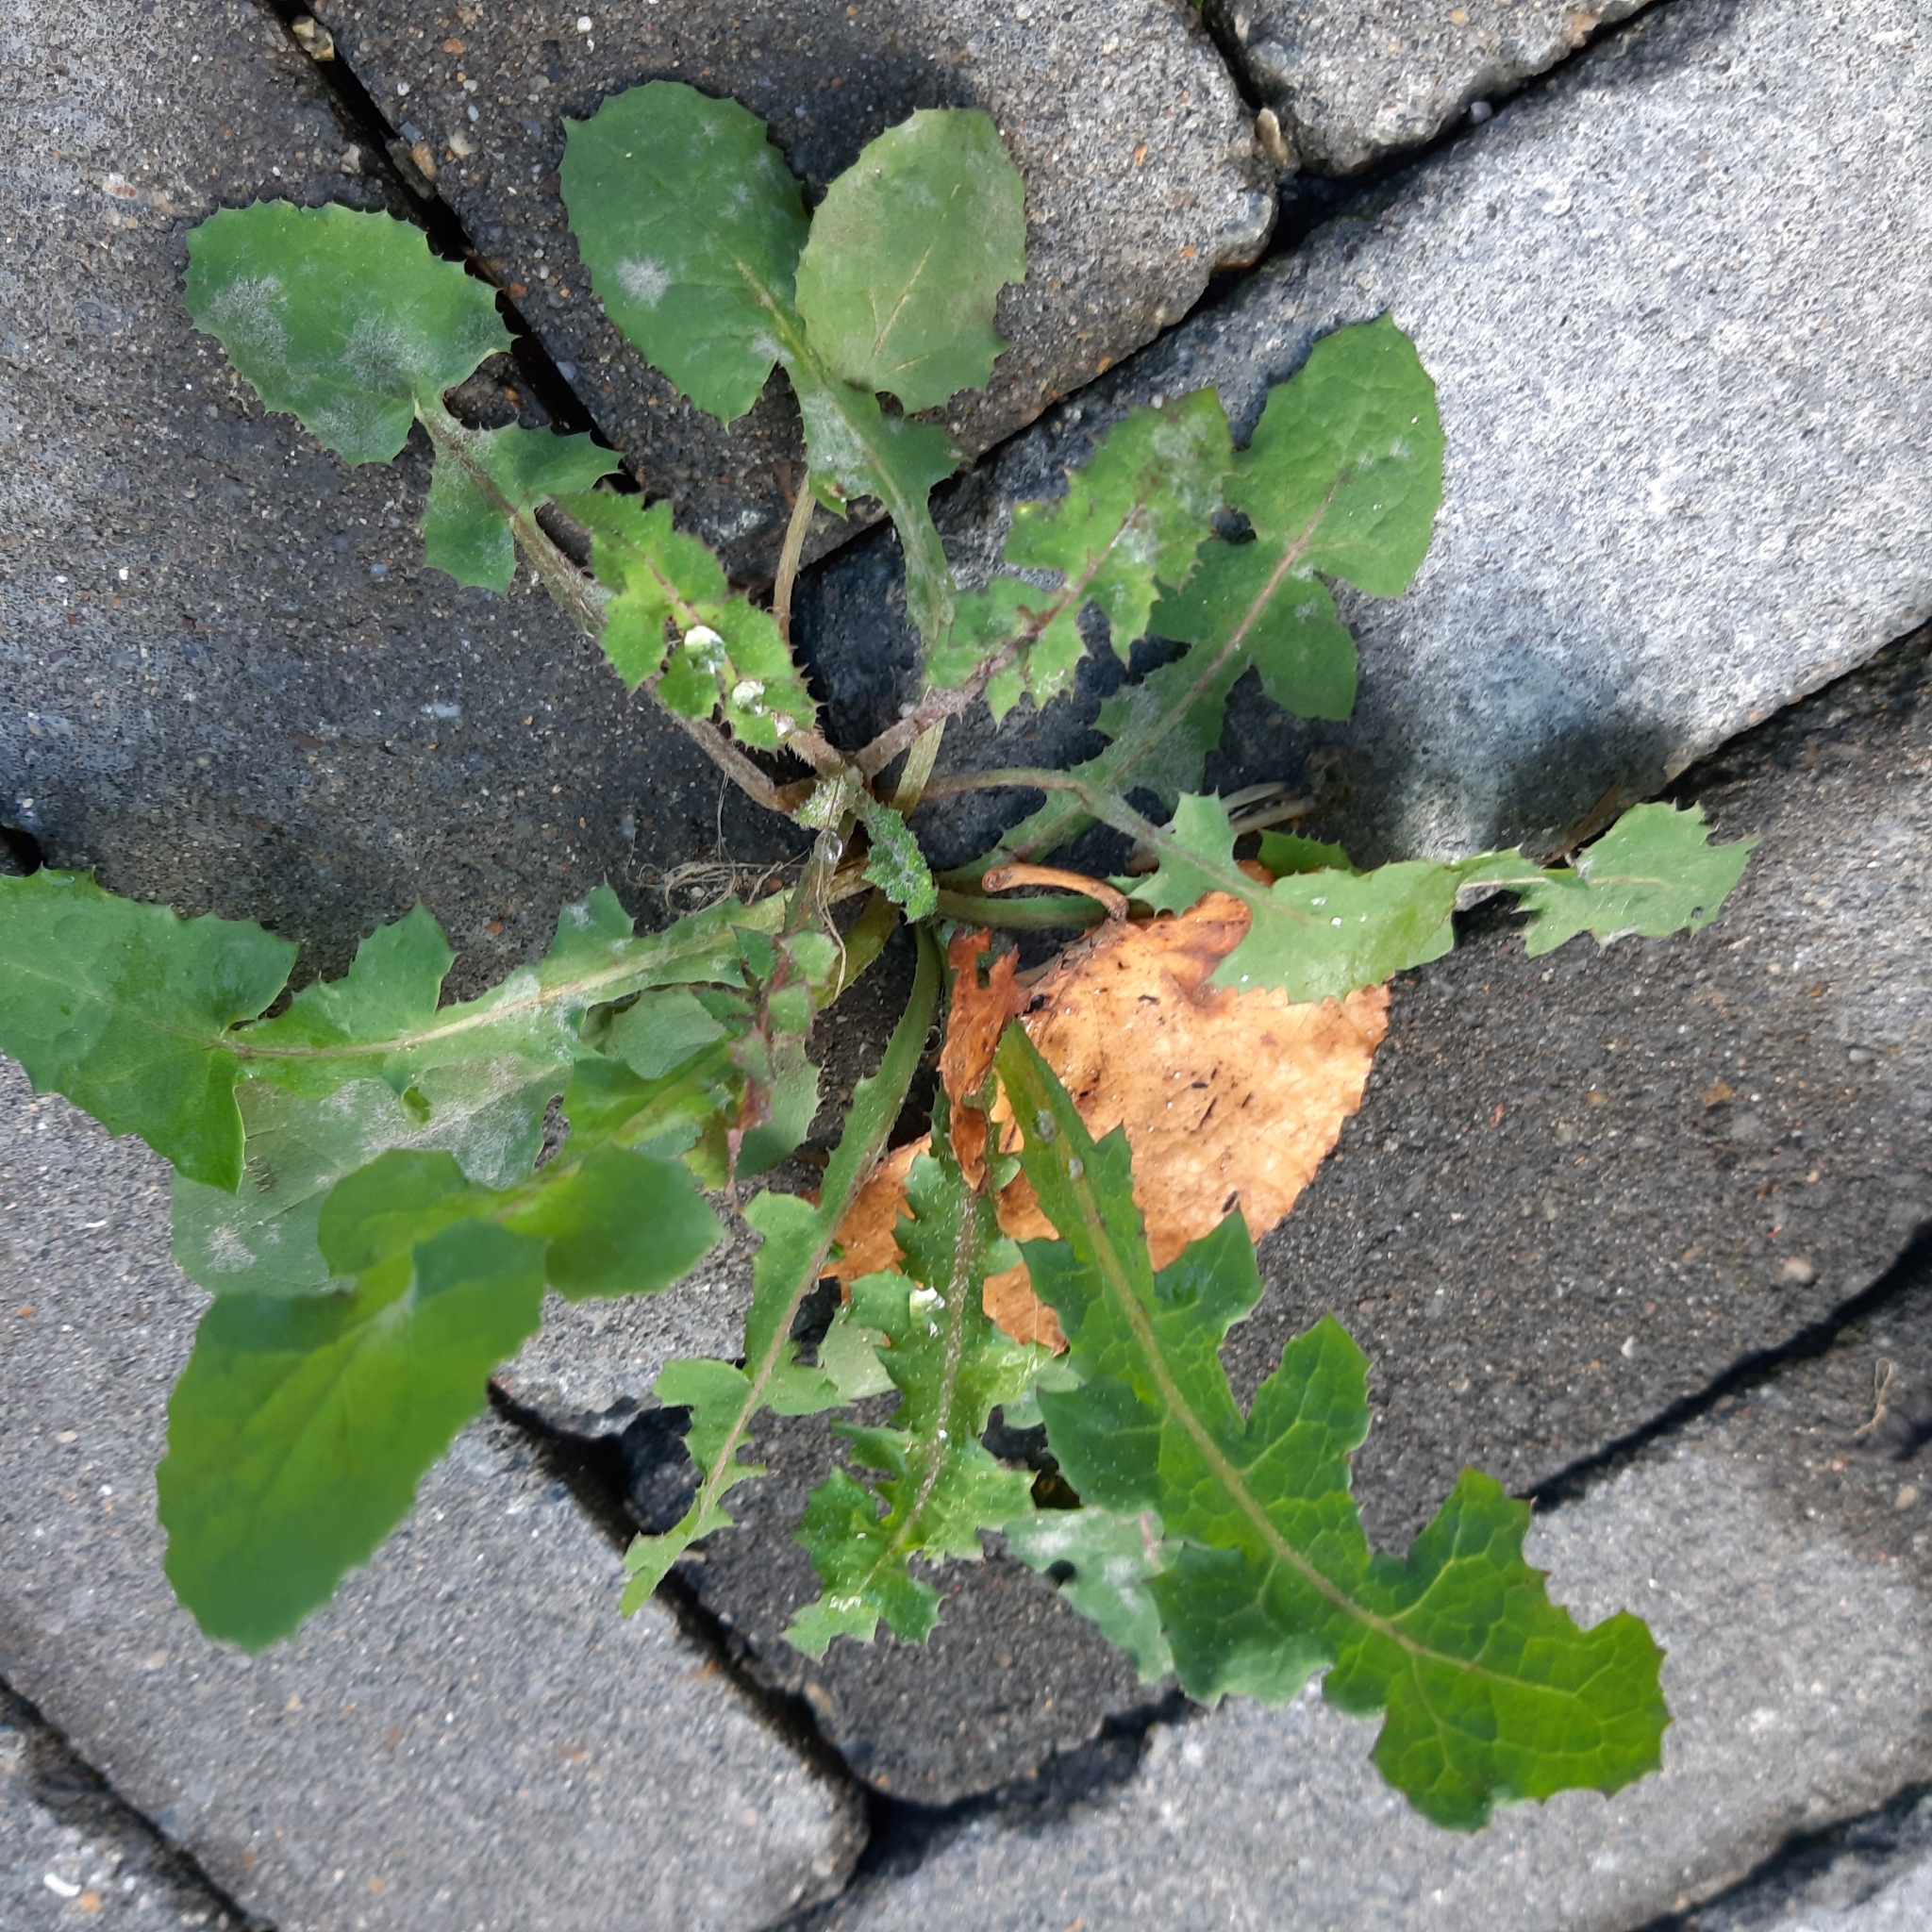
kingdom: Plantae
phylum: Tracheophyta
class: Magnoliopsida
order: Asterales
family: Asteraceae
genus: Sonchus
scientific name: Sonchus oleraceus
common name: Common sowthistle
